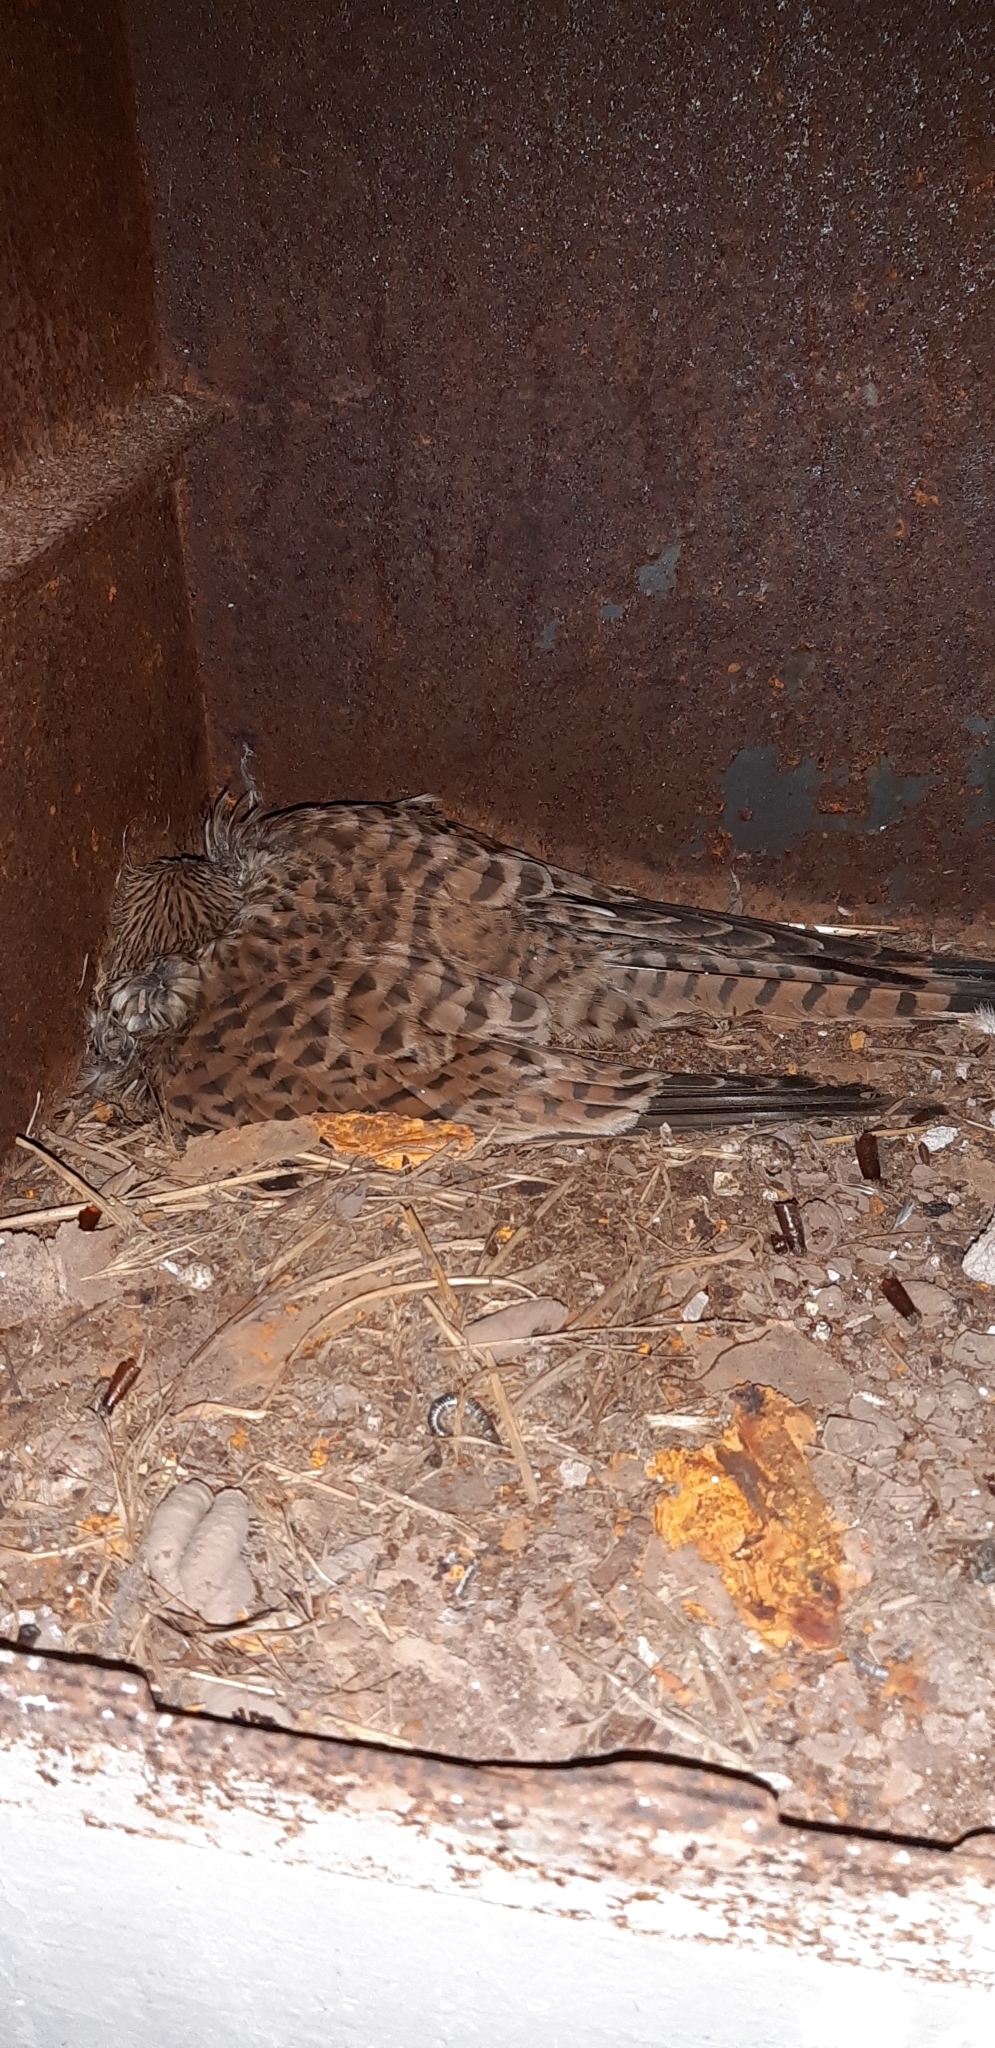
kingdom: Animalia
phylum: Chordata
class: Aves
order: Falconiformes
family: Falconidae
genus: Falco
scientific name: Falco tinnunculus
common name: Common kestrel
